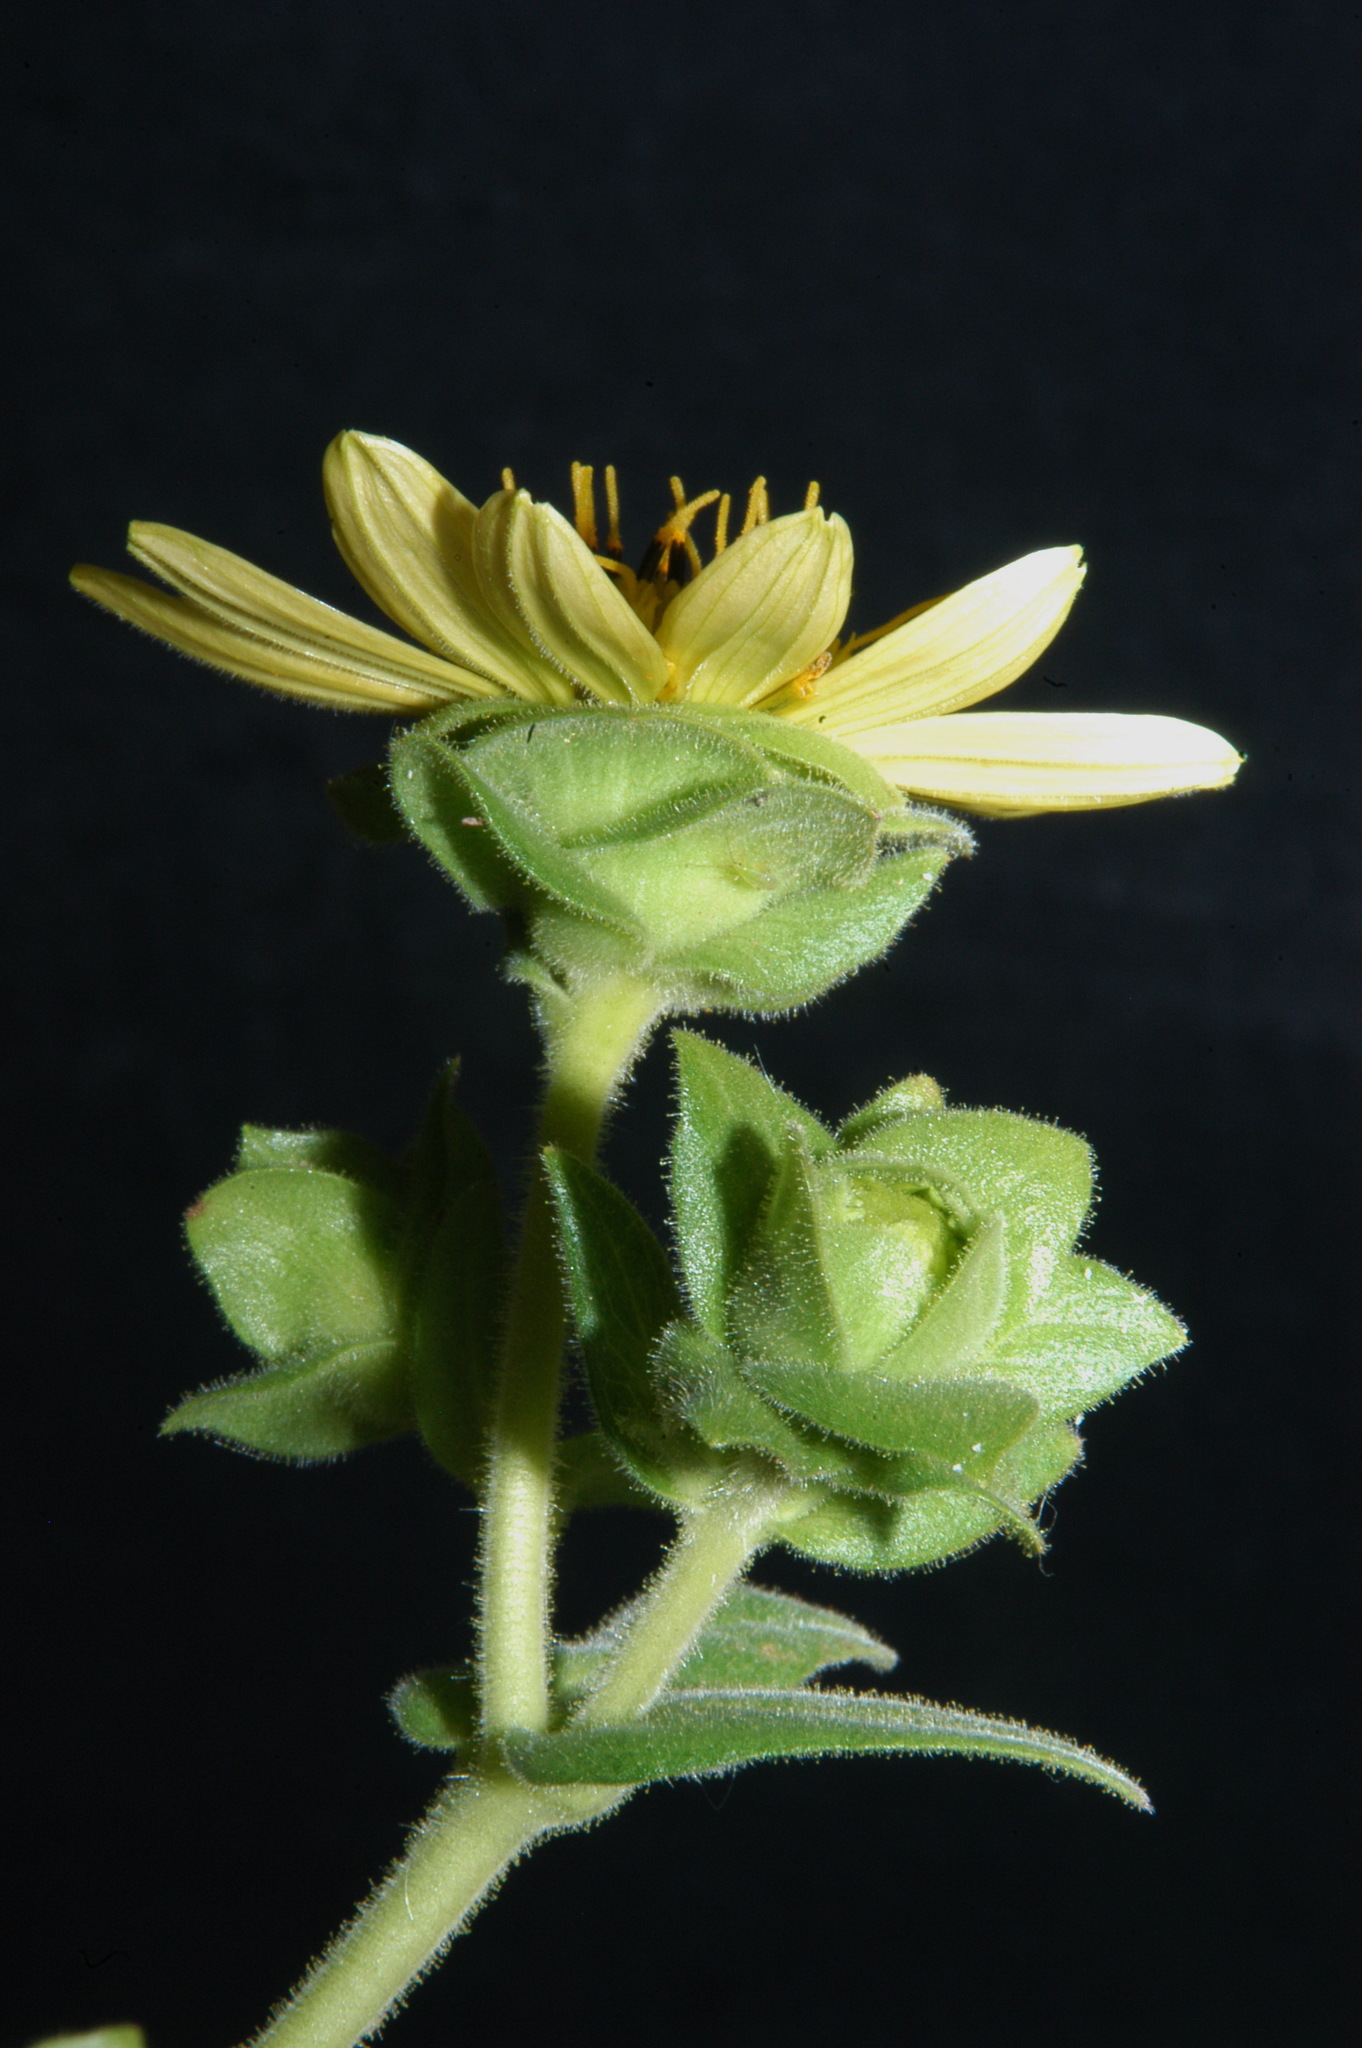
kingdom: Plantae
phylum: Tracheophyta
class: Magnoliopsida
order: Asterales
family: Asteraceae
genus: Silphium
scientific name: Silphium glutinosum
